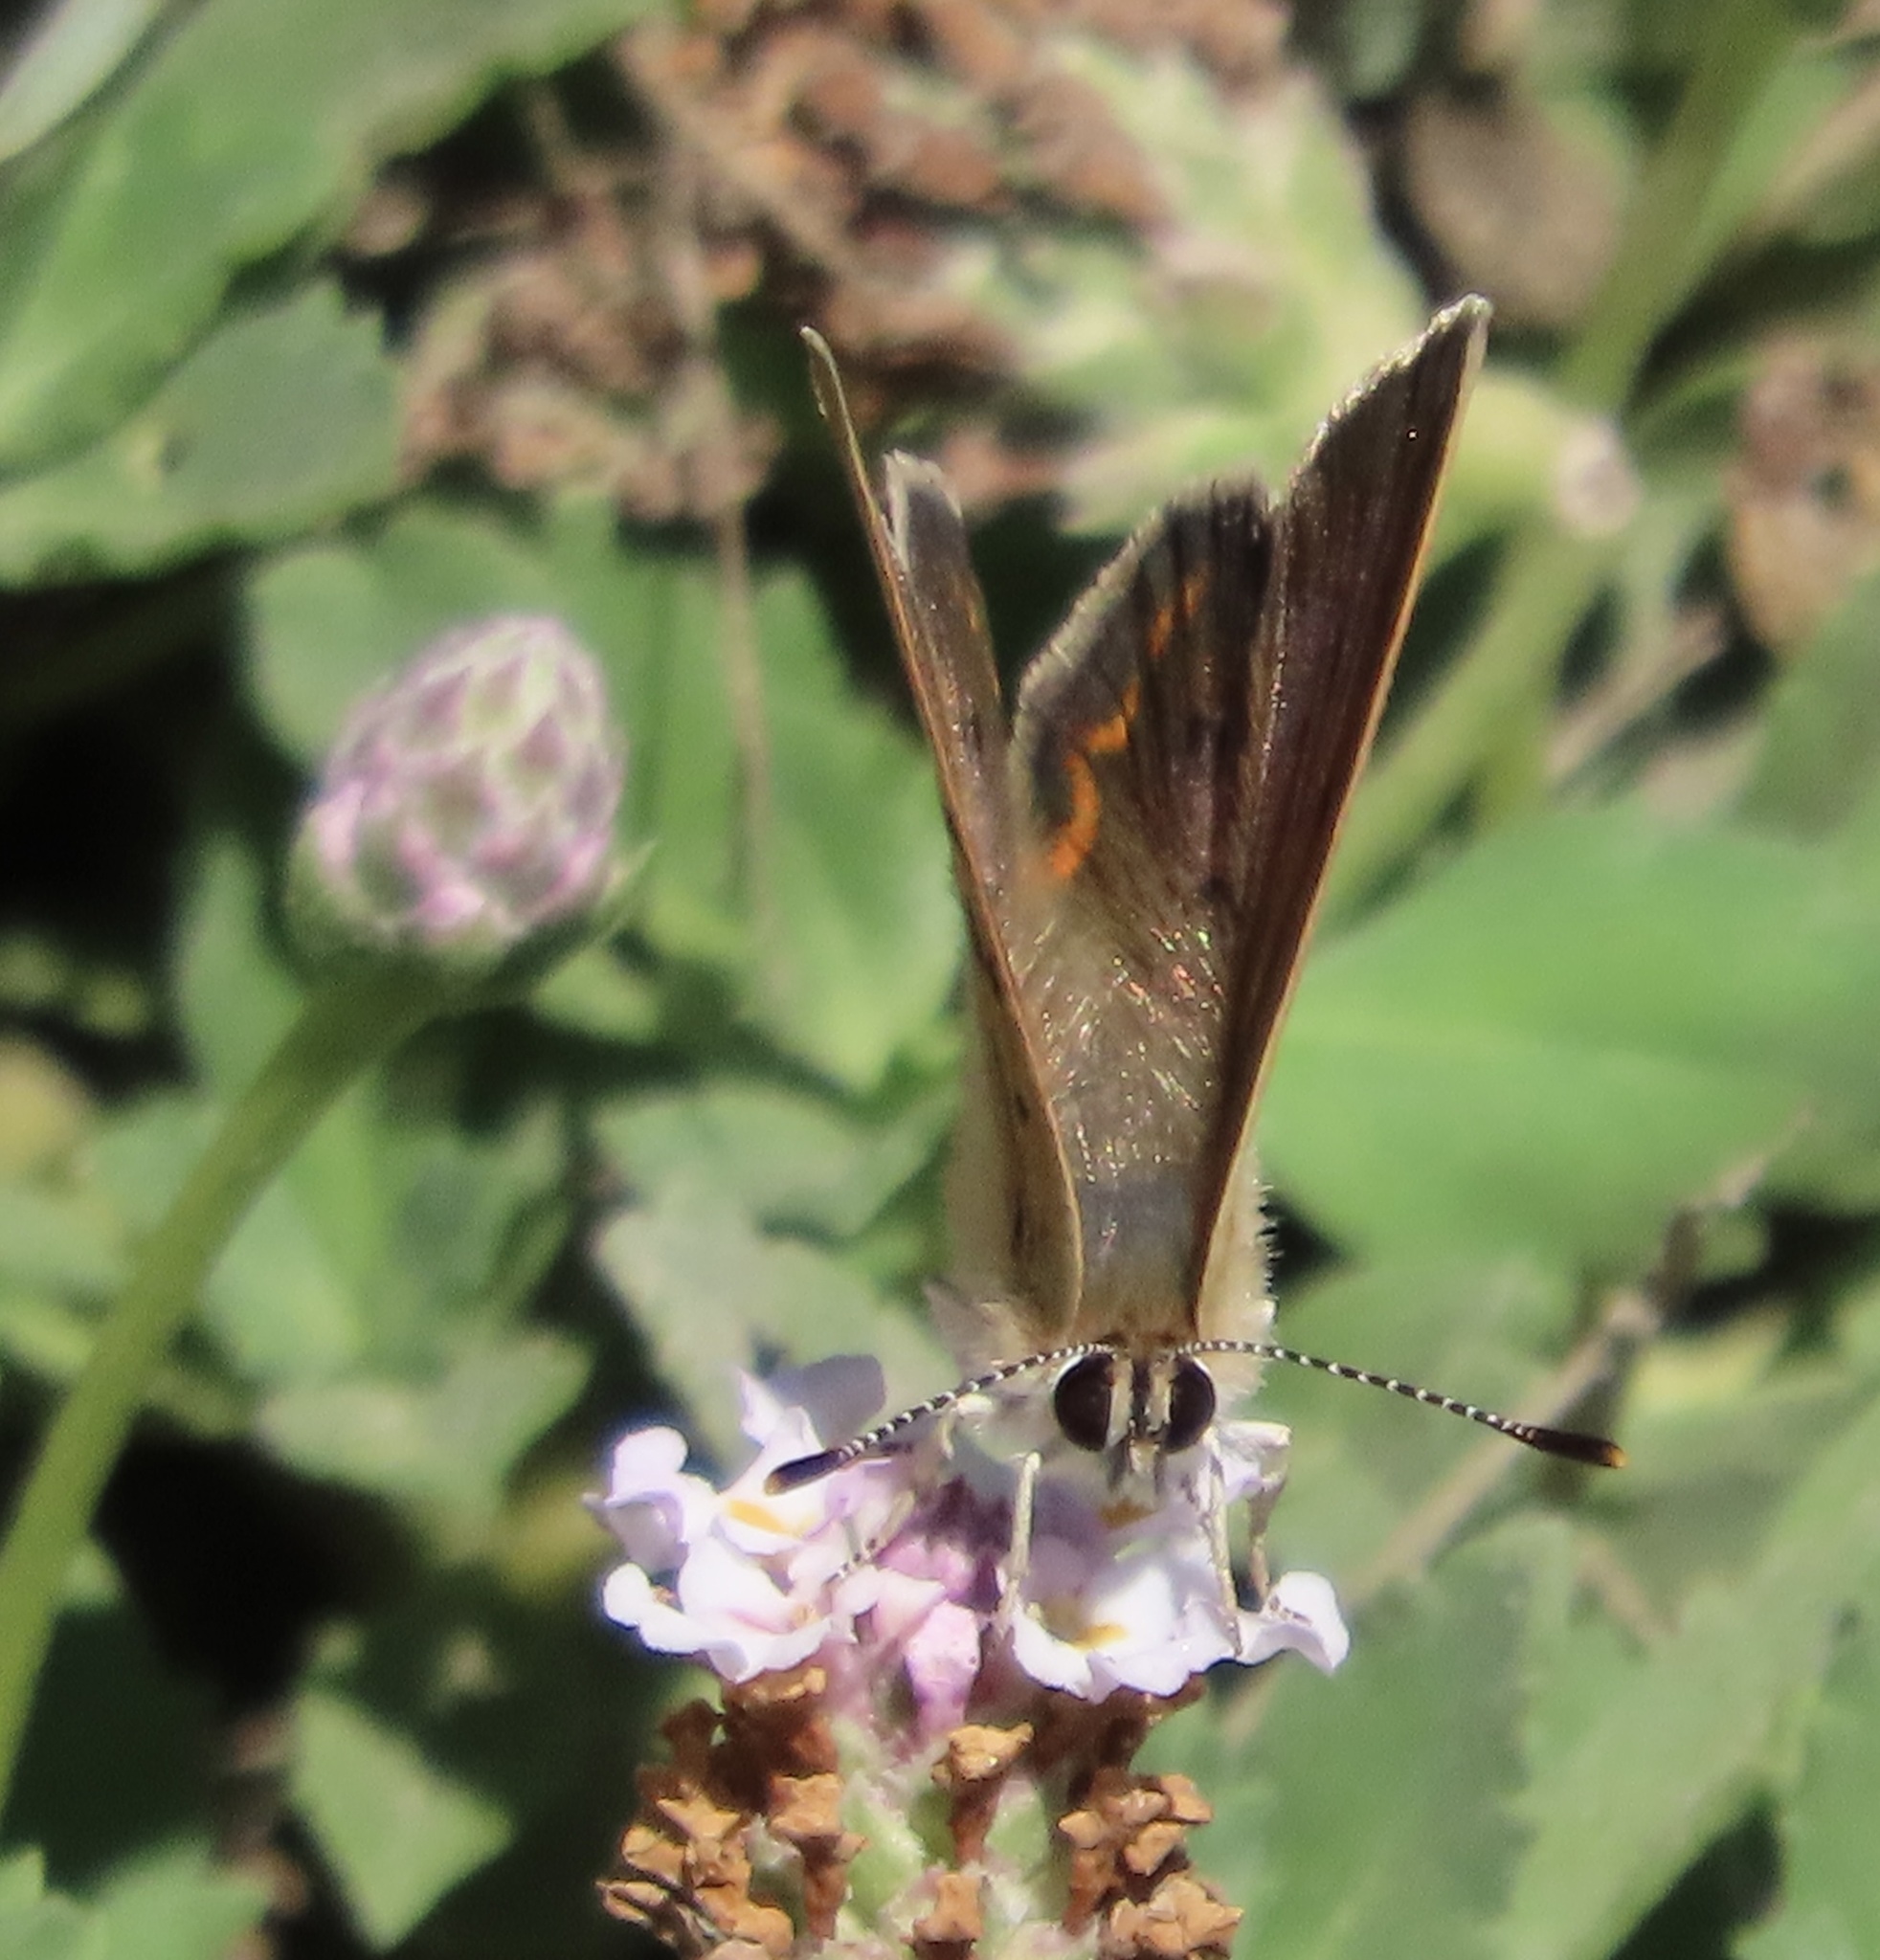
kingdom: Animalia
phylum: Arthropoda
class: Insecta
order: Lepidoptera
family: Lycaenidae
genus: Tharsalea
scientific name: Tharsalea helloides
